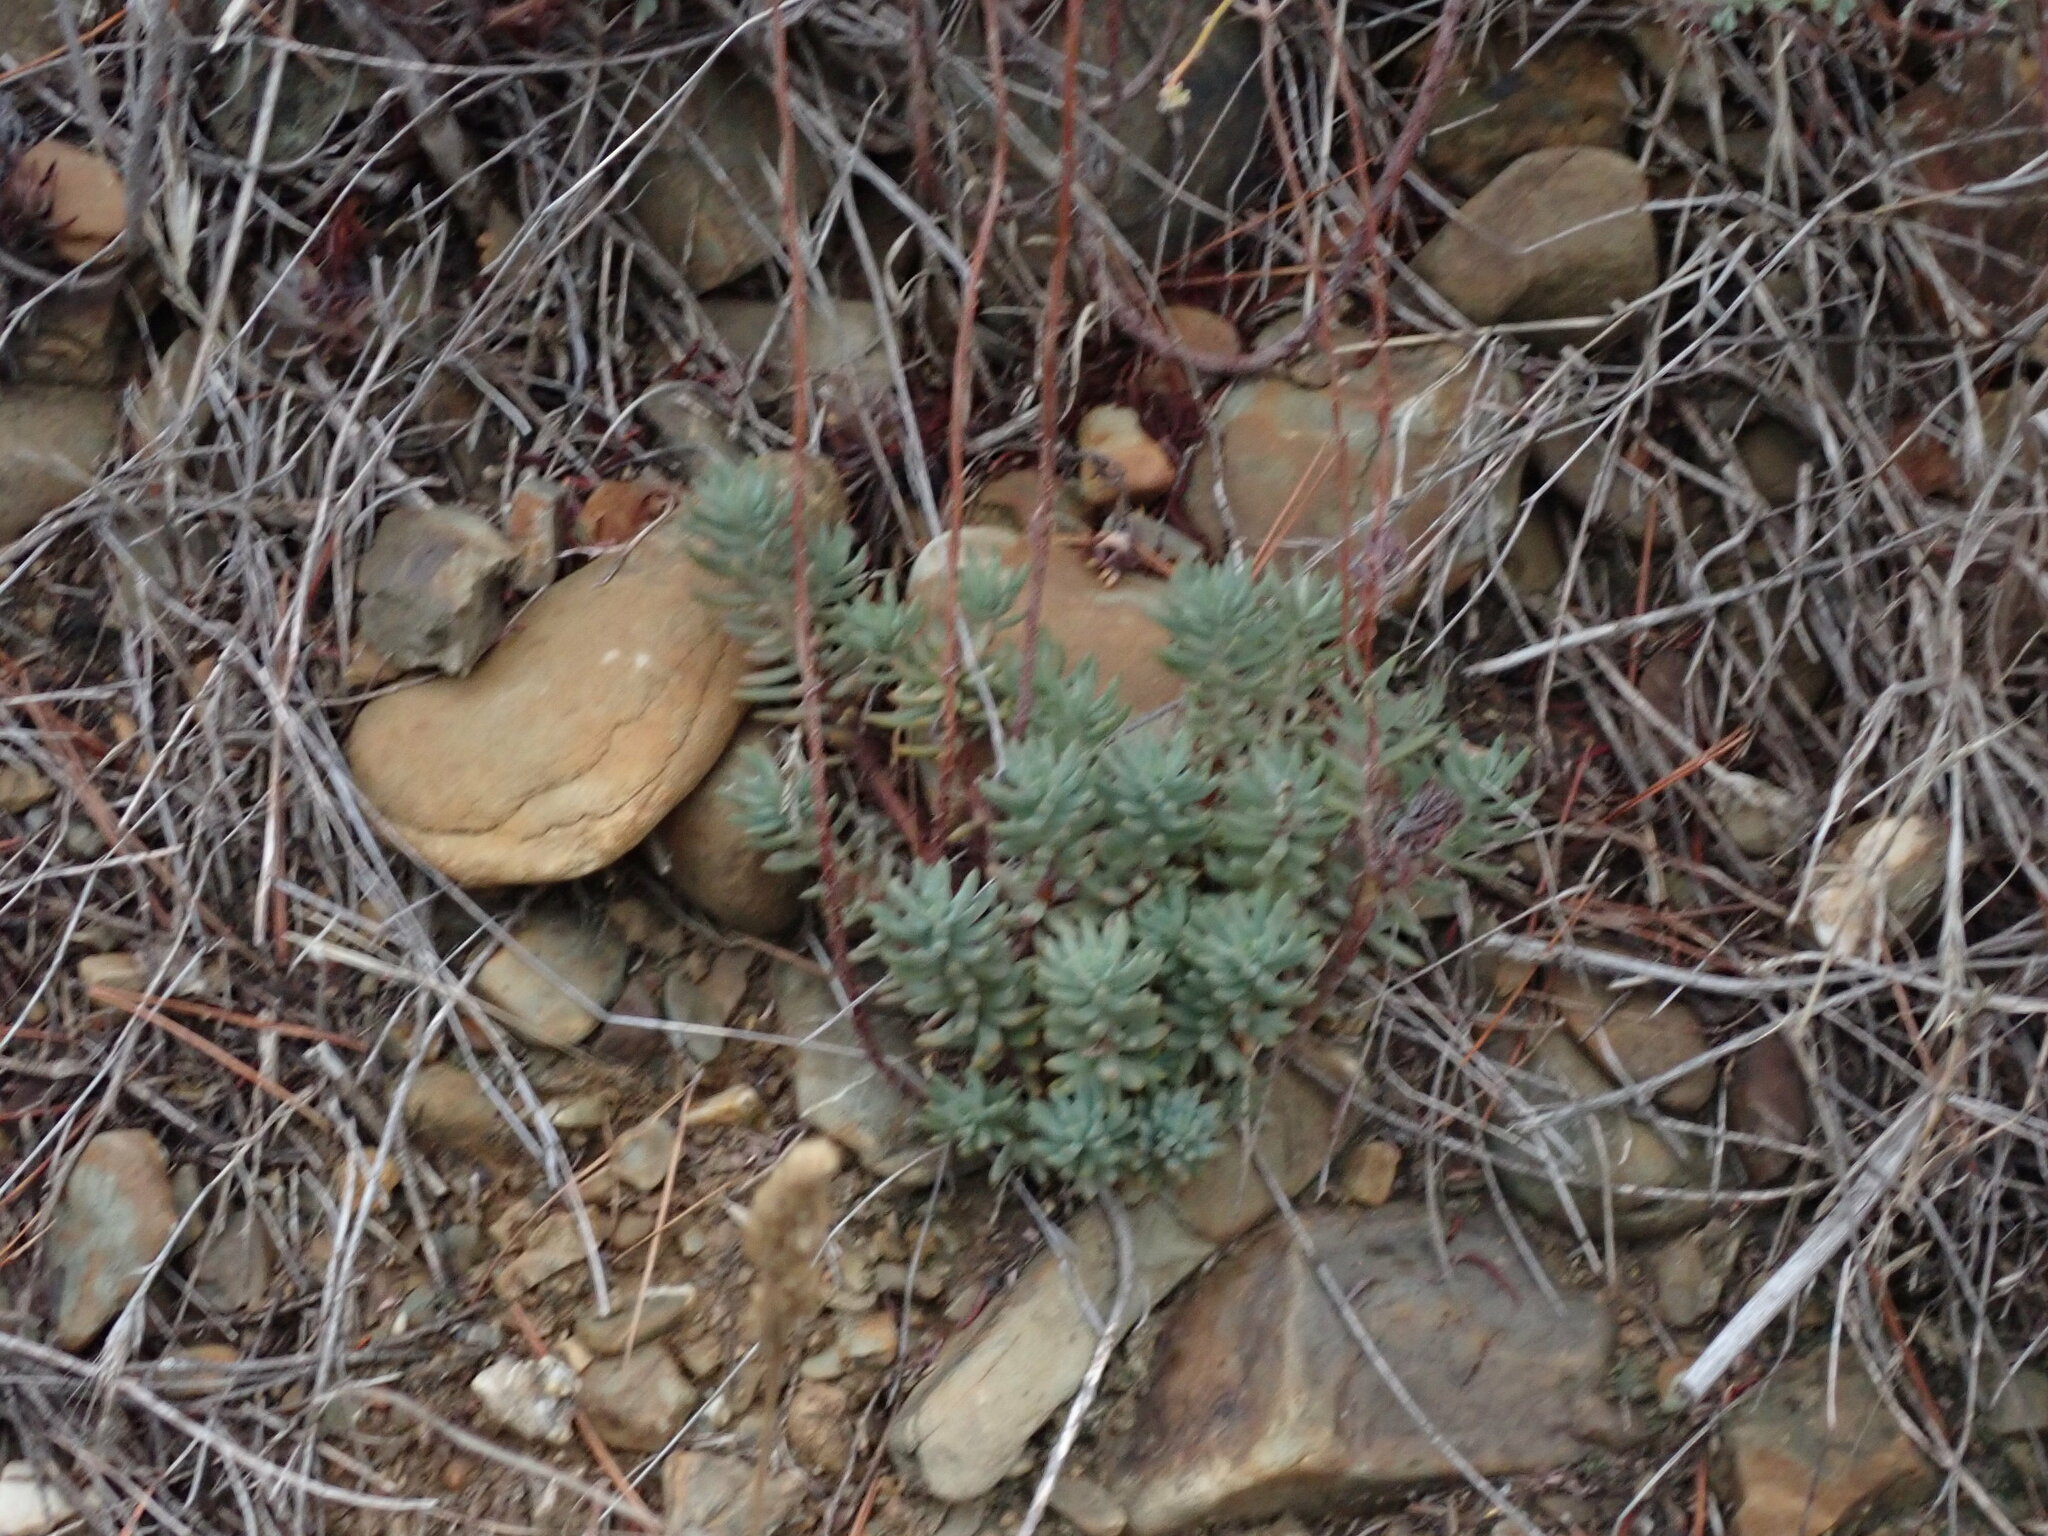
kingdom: Plantae
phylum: Tracheophyta
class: Magnoliopsida
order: Saxifragales
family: Crassulaceae
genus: Petrosedum
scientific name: Petrosedum sediforme
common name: Pale stonecrop
